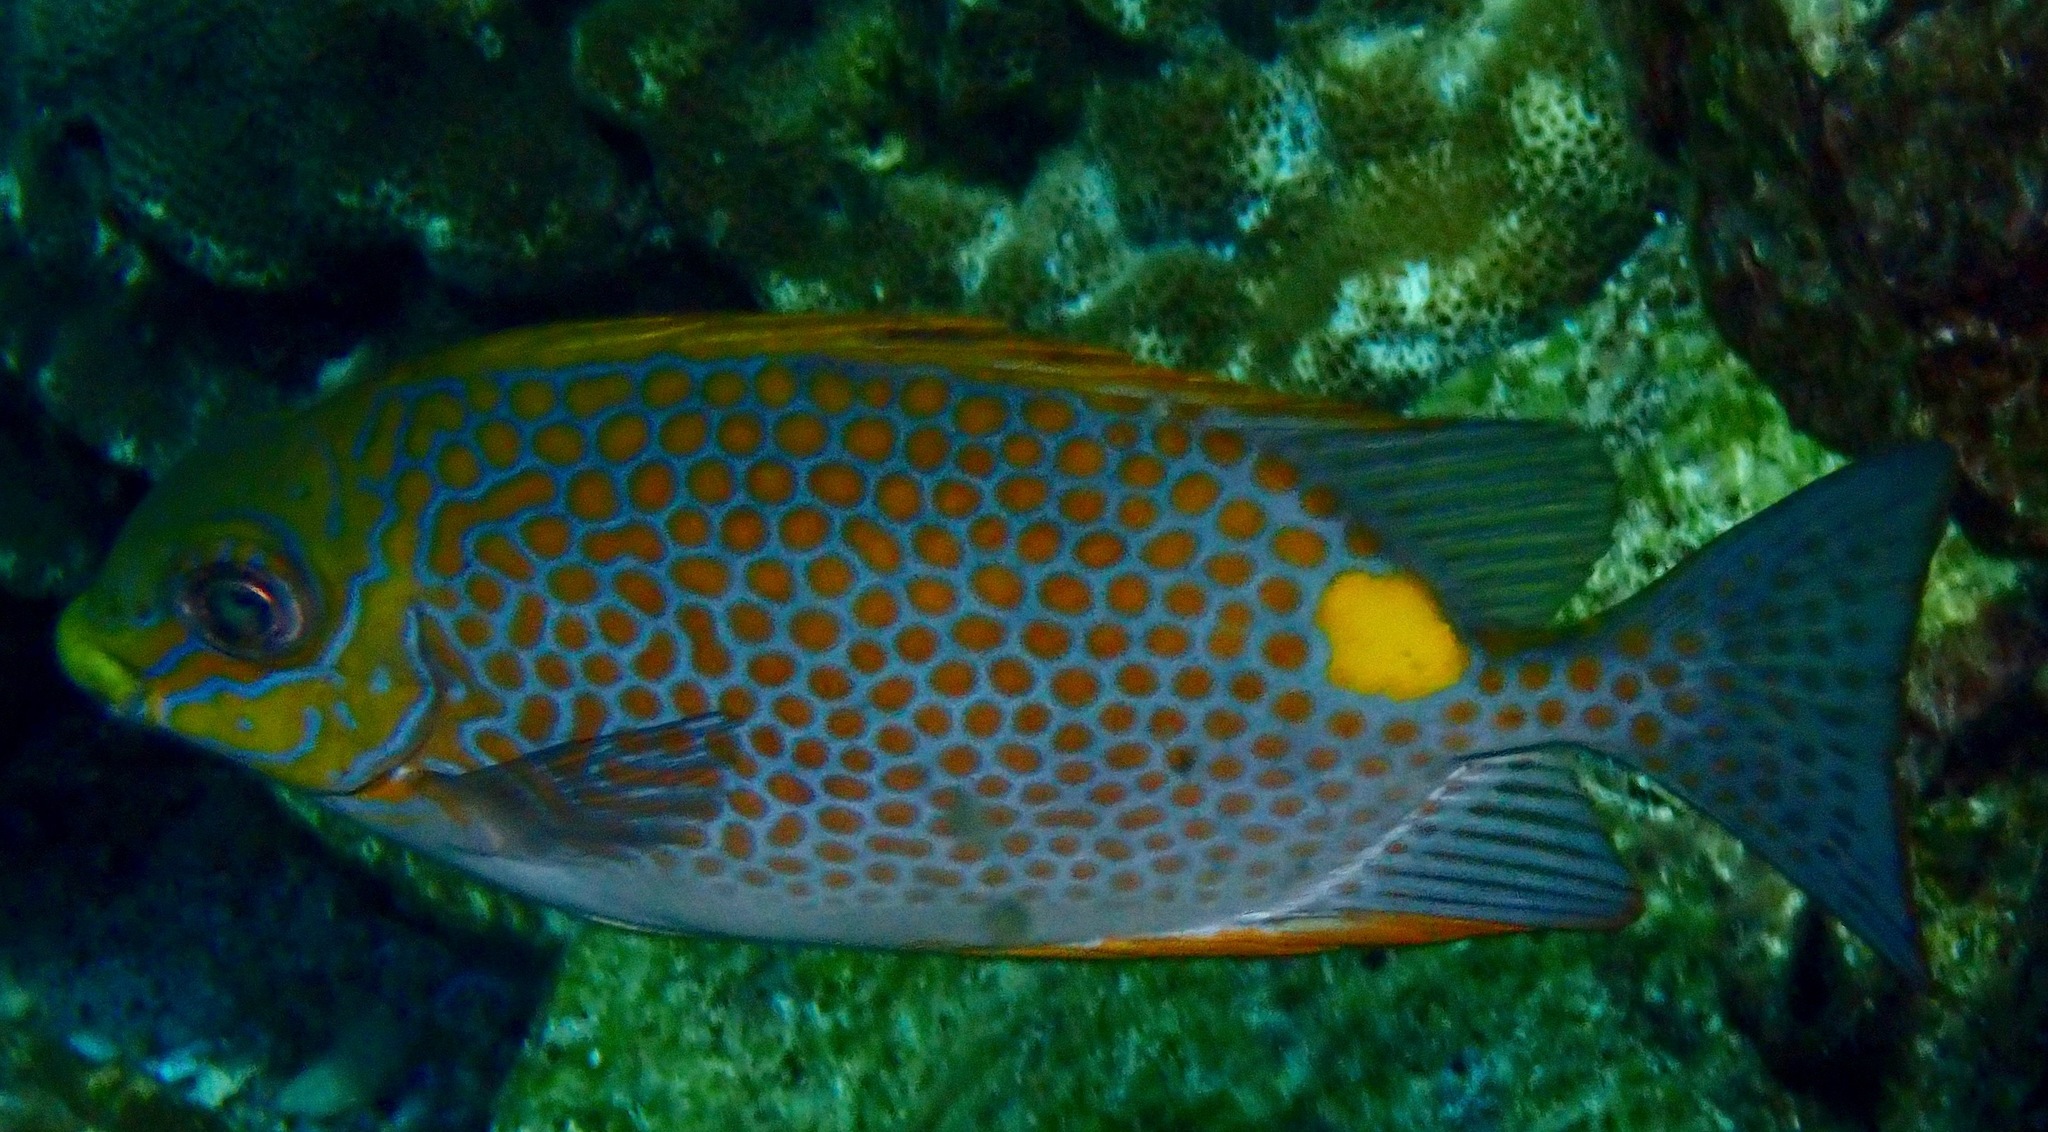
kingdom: Animalia
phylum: Chordata
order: Perciformes
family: Siganidae
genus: Siganus
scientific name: Siganus guttatus
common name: Golden rabbitfish
